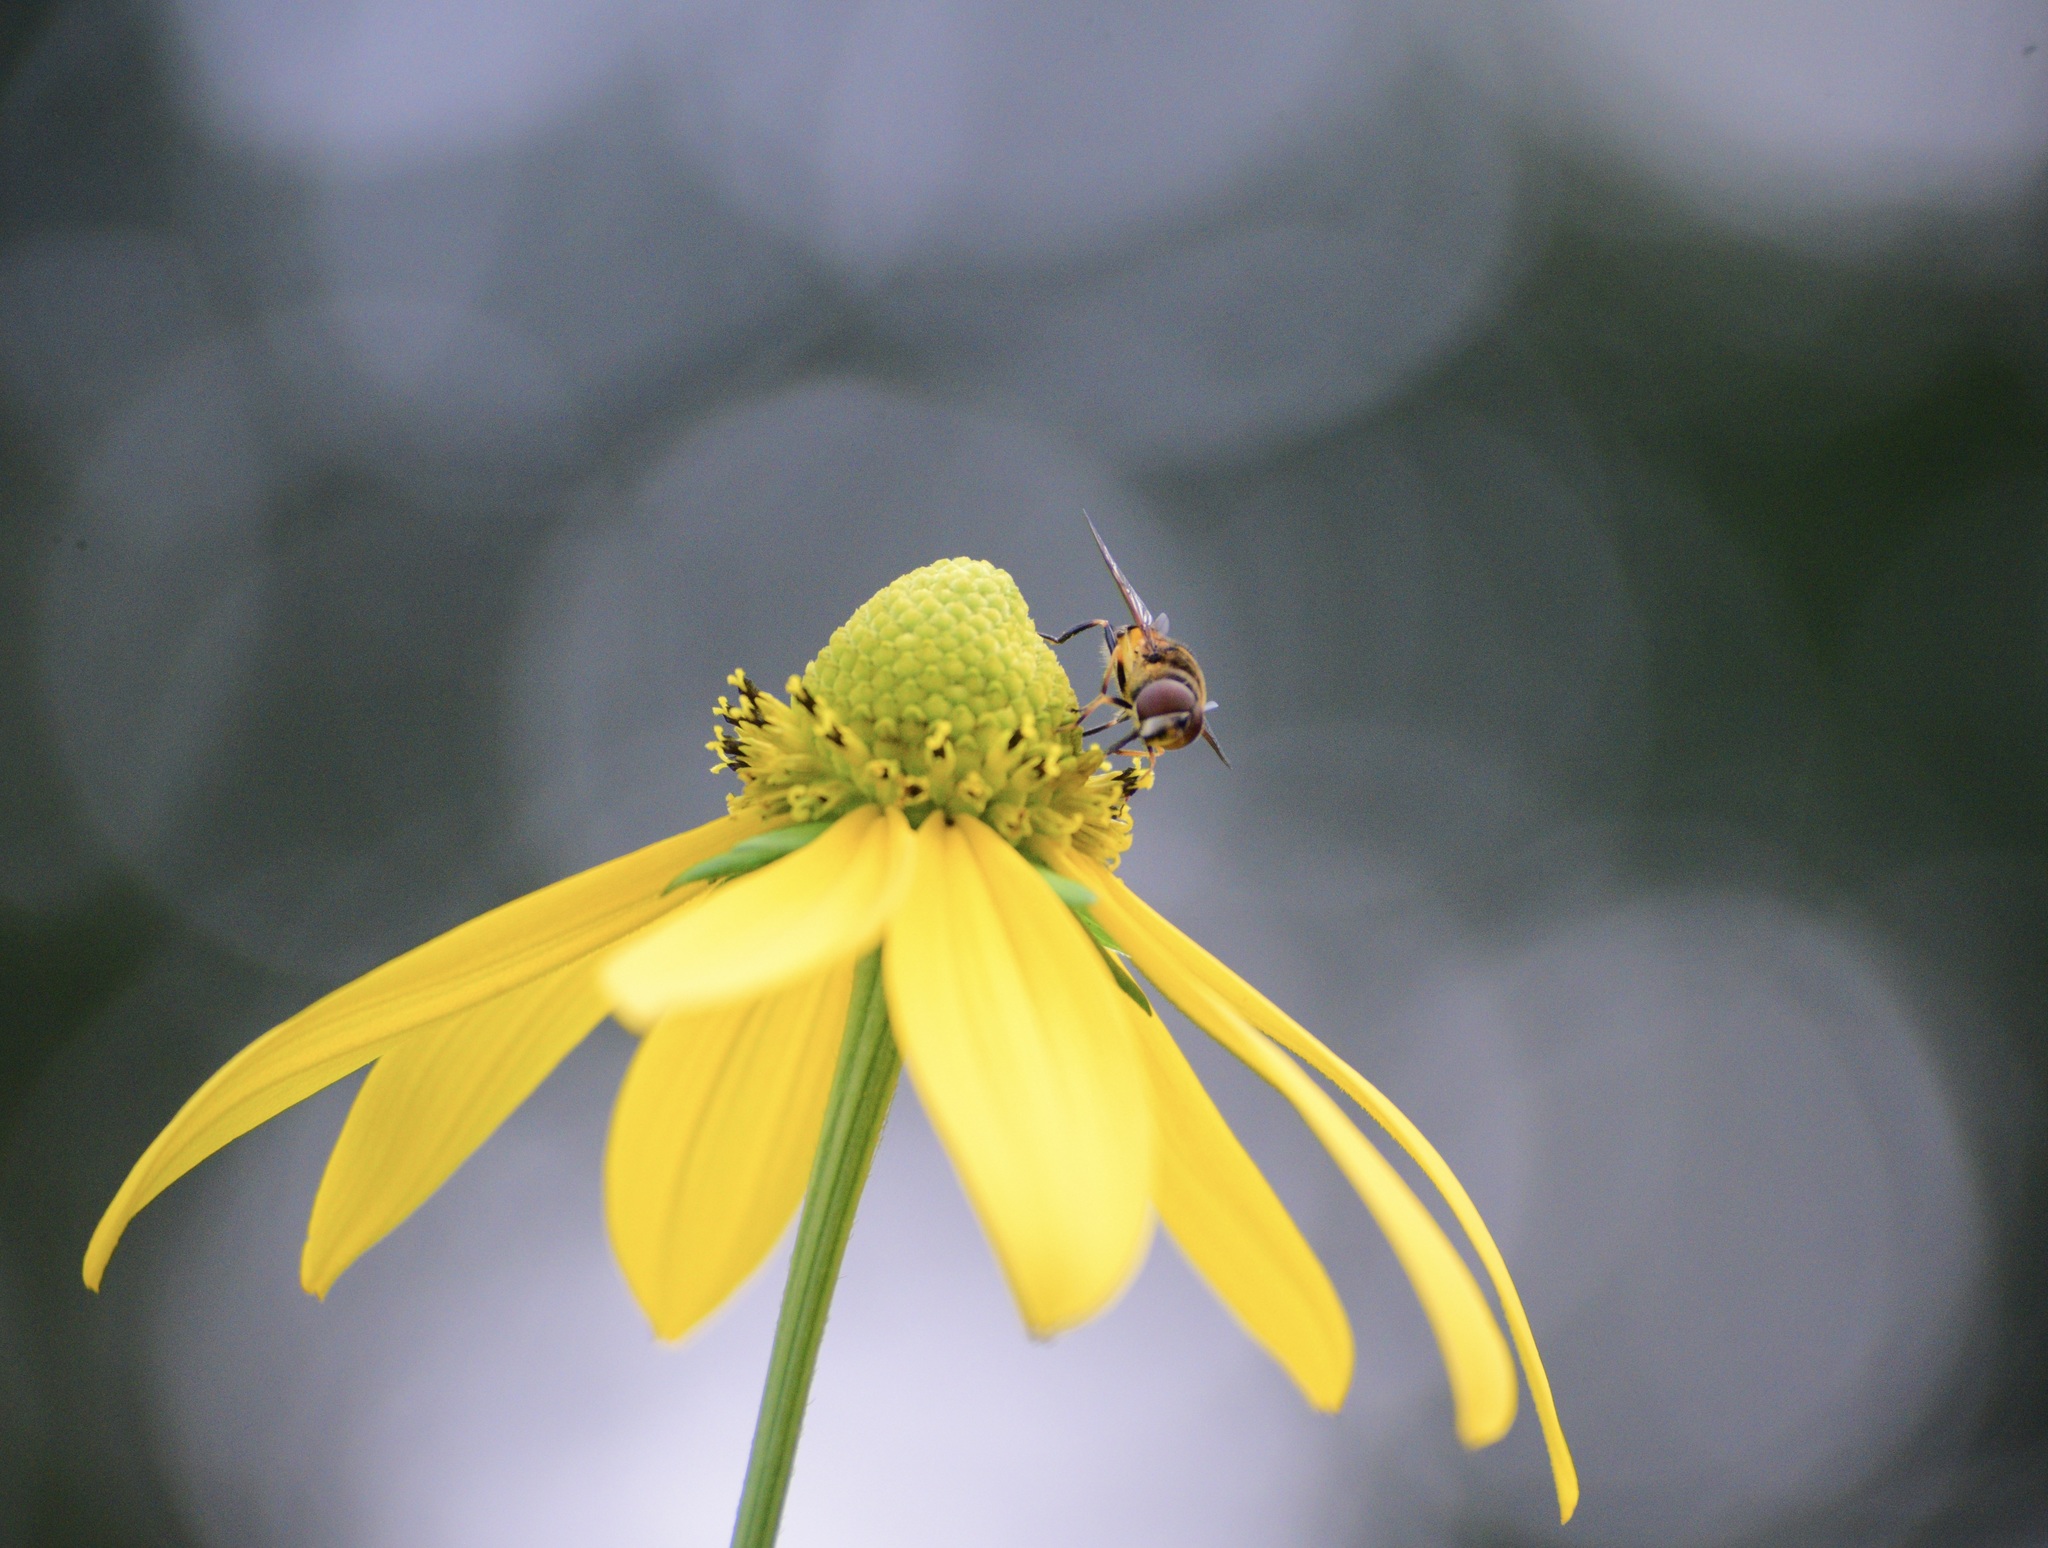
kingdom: Animalia
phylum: Arthropoda
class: Insecta
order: Diptera
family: Syrphidae
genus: Eristalis
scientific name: Eristalis transversa
